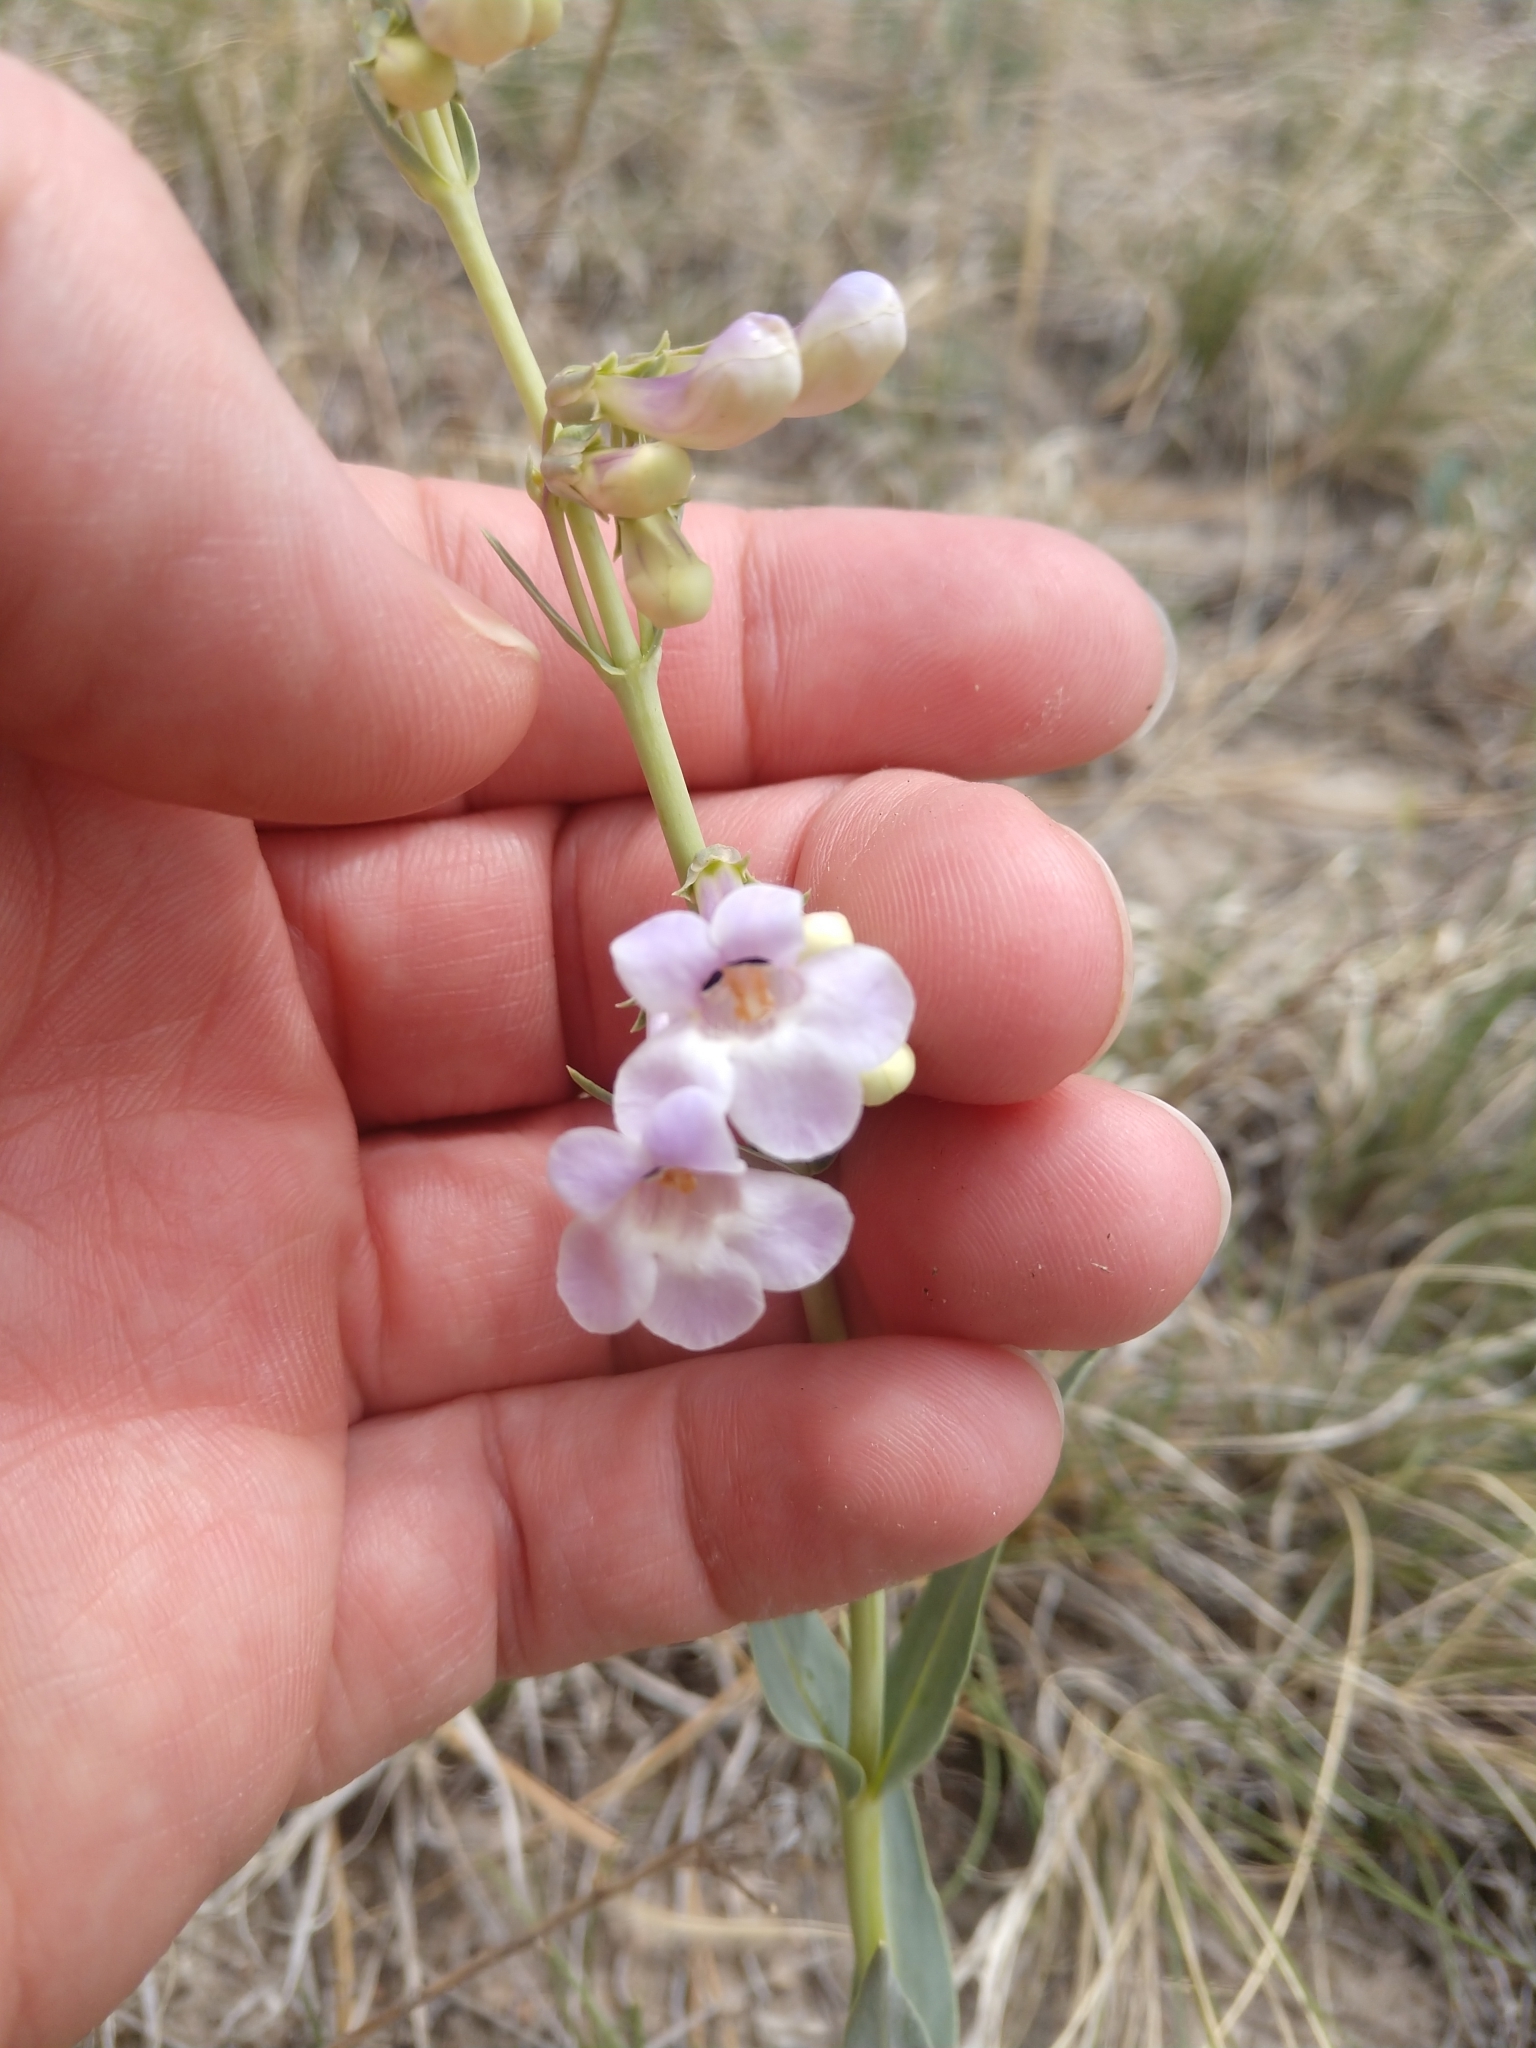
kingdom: Plantae
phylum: Tracheophyta
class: Magnoliopsida
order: Lamiales
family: Plantaginaceae
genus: Penstemon
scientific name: Penstemon secundiflorus
